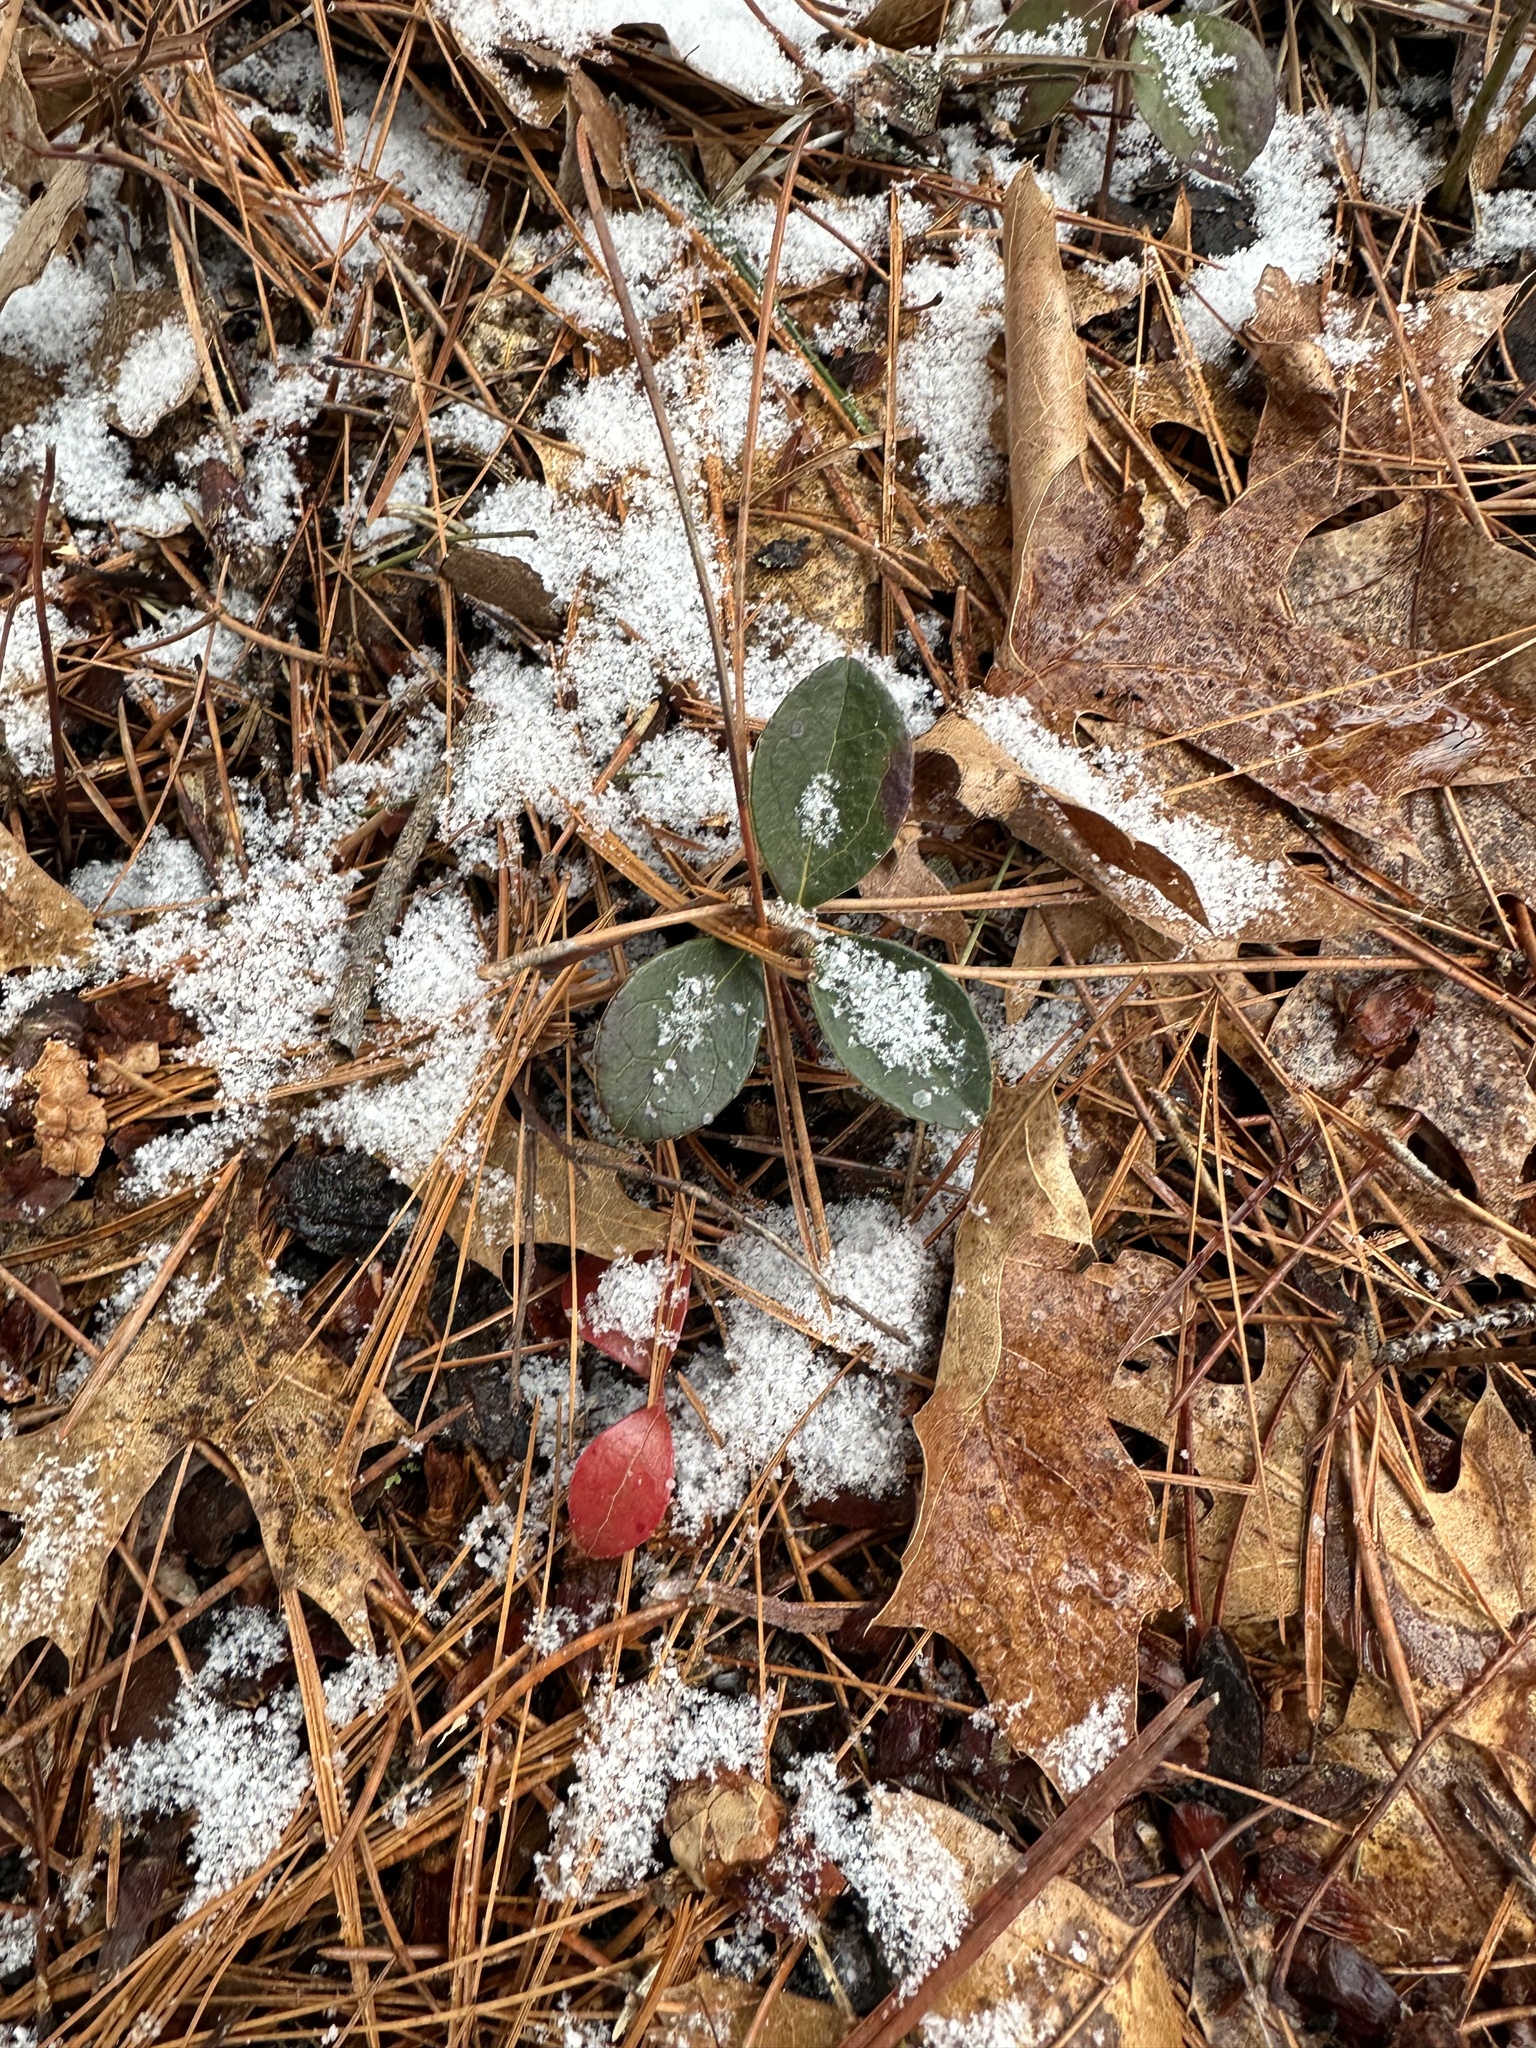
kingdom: Plantae
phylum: Tracheophyta
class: Magnoliopsida
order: Ericales
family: Ericaceae
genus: Gaultheria
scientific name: Gaultheria procumbens
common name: Checkerberry
